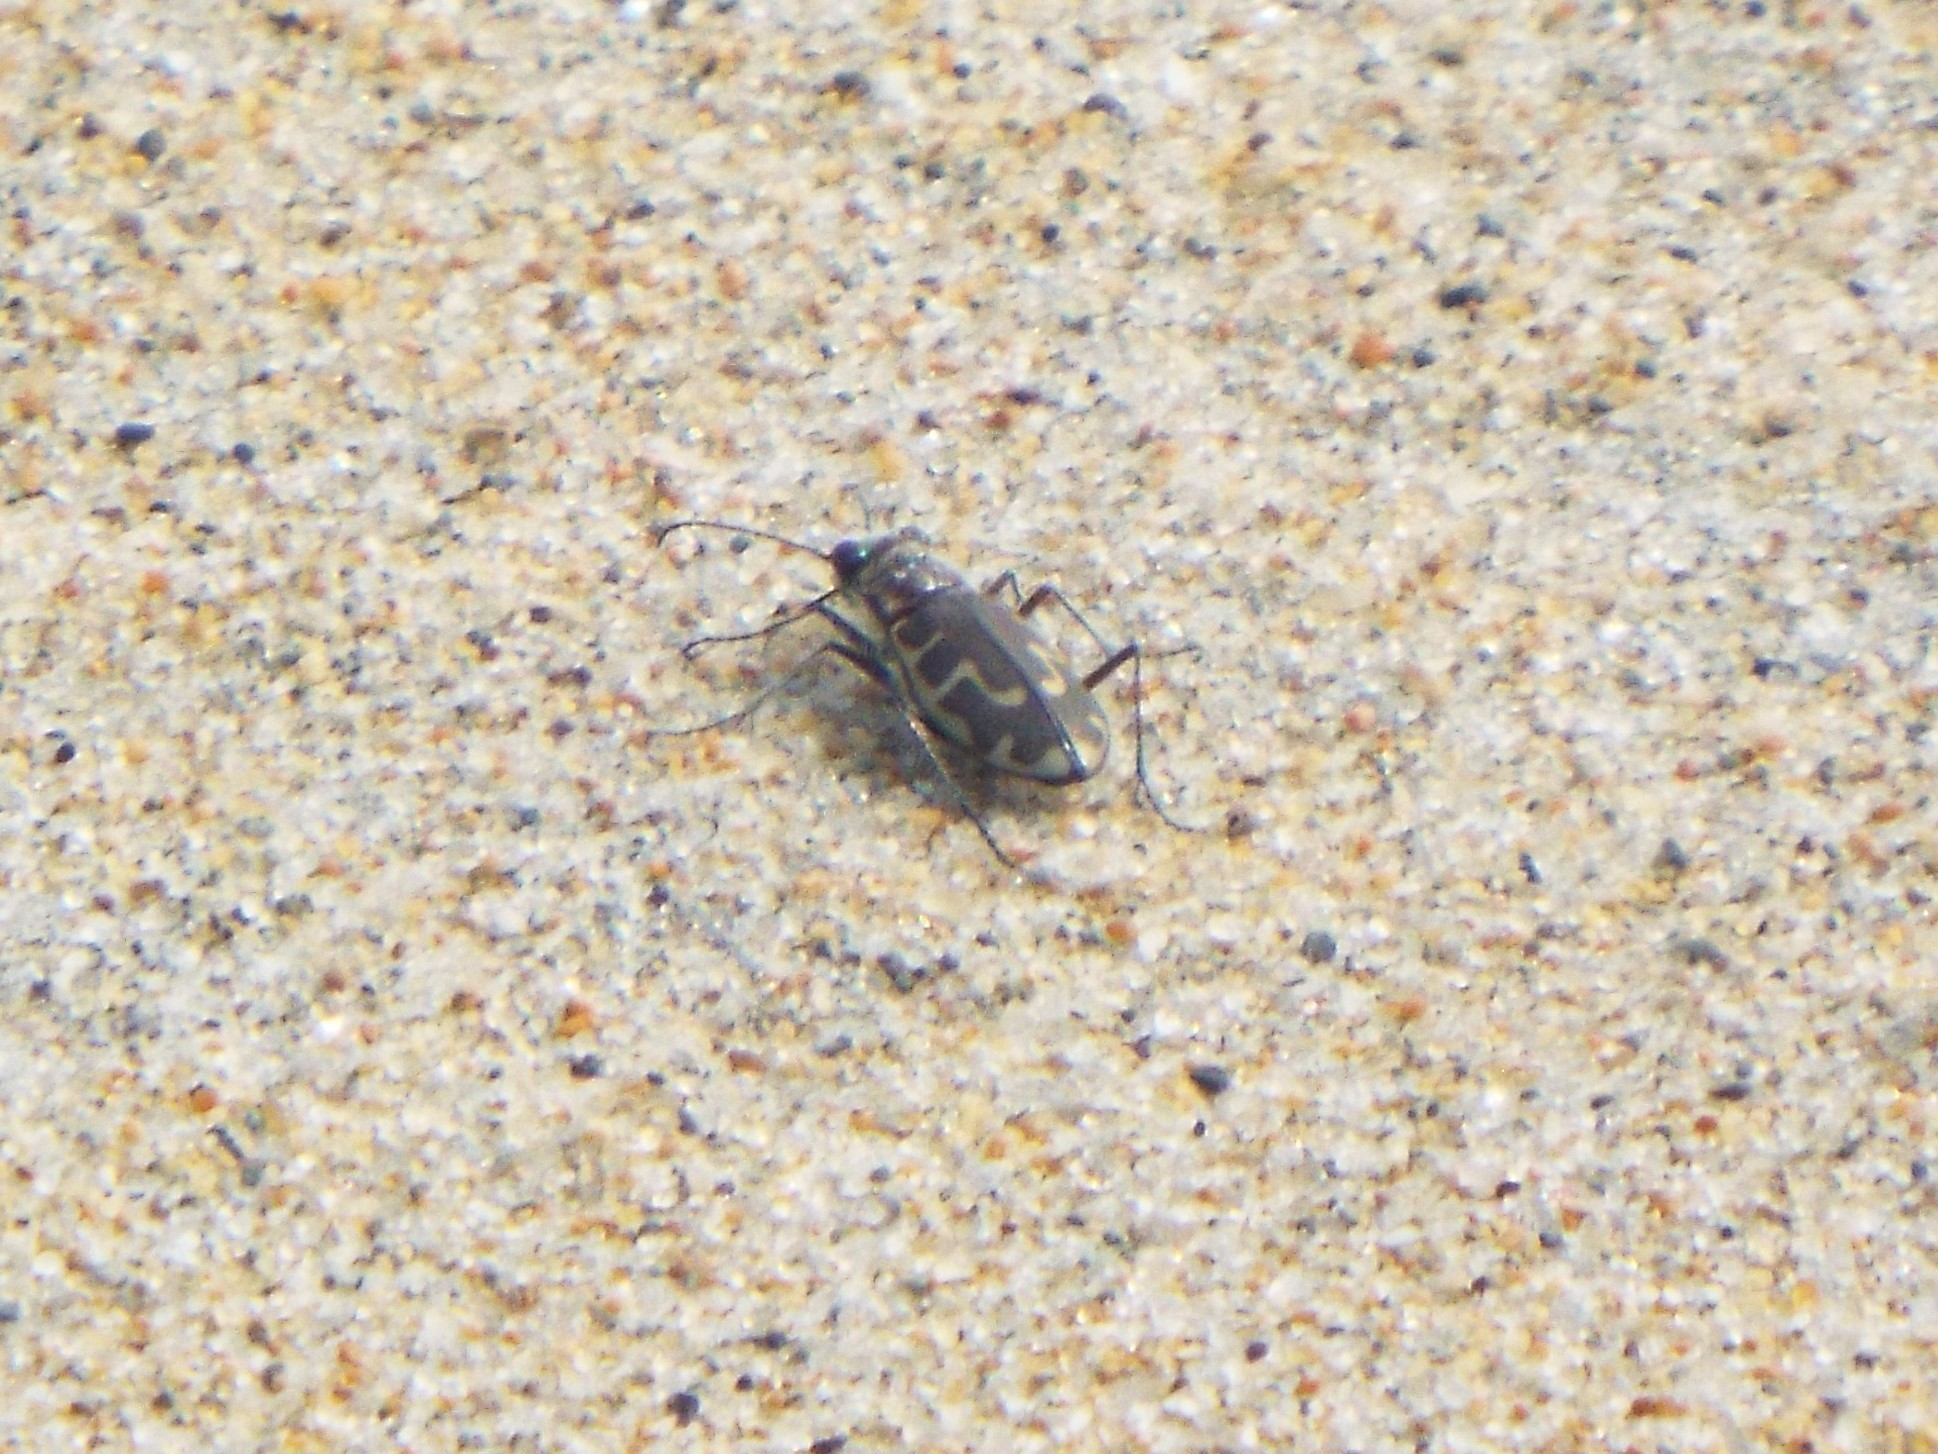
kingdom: Animalia
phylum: Arthropoda
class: Insecta
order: Coleoptera
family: Carabidae
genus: Cicindela
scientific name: Cicindela hirticollis
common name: Hairy-necked tiger beetle
